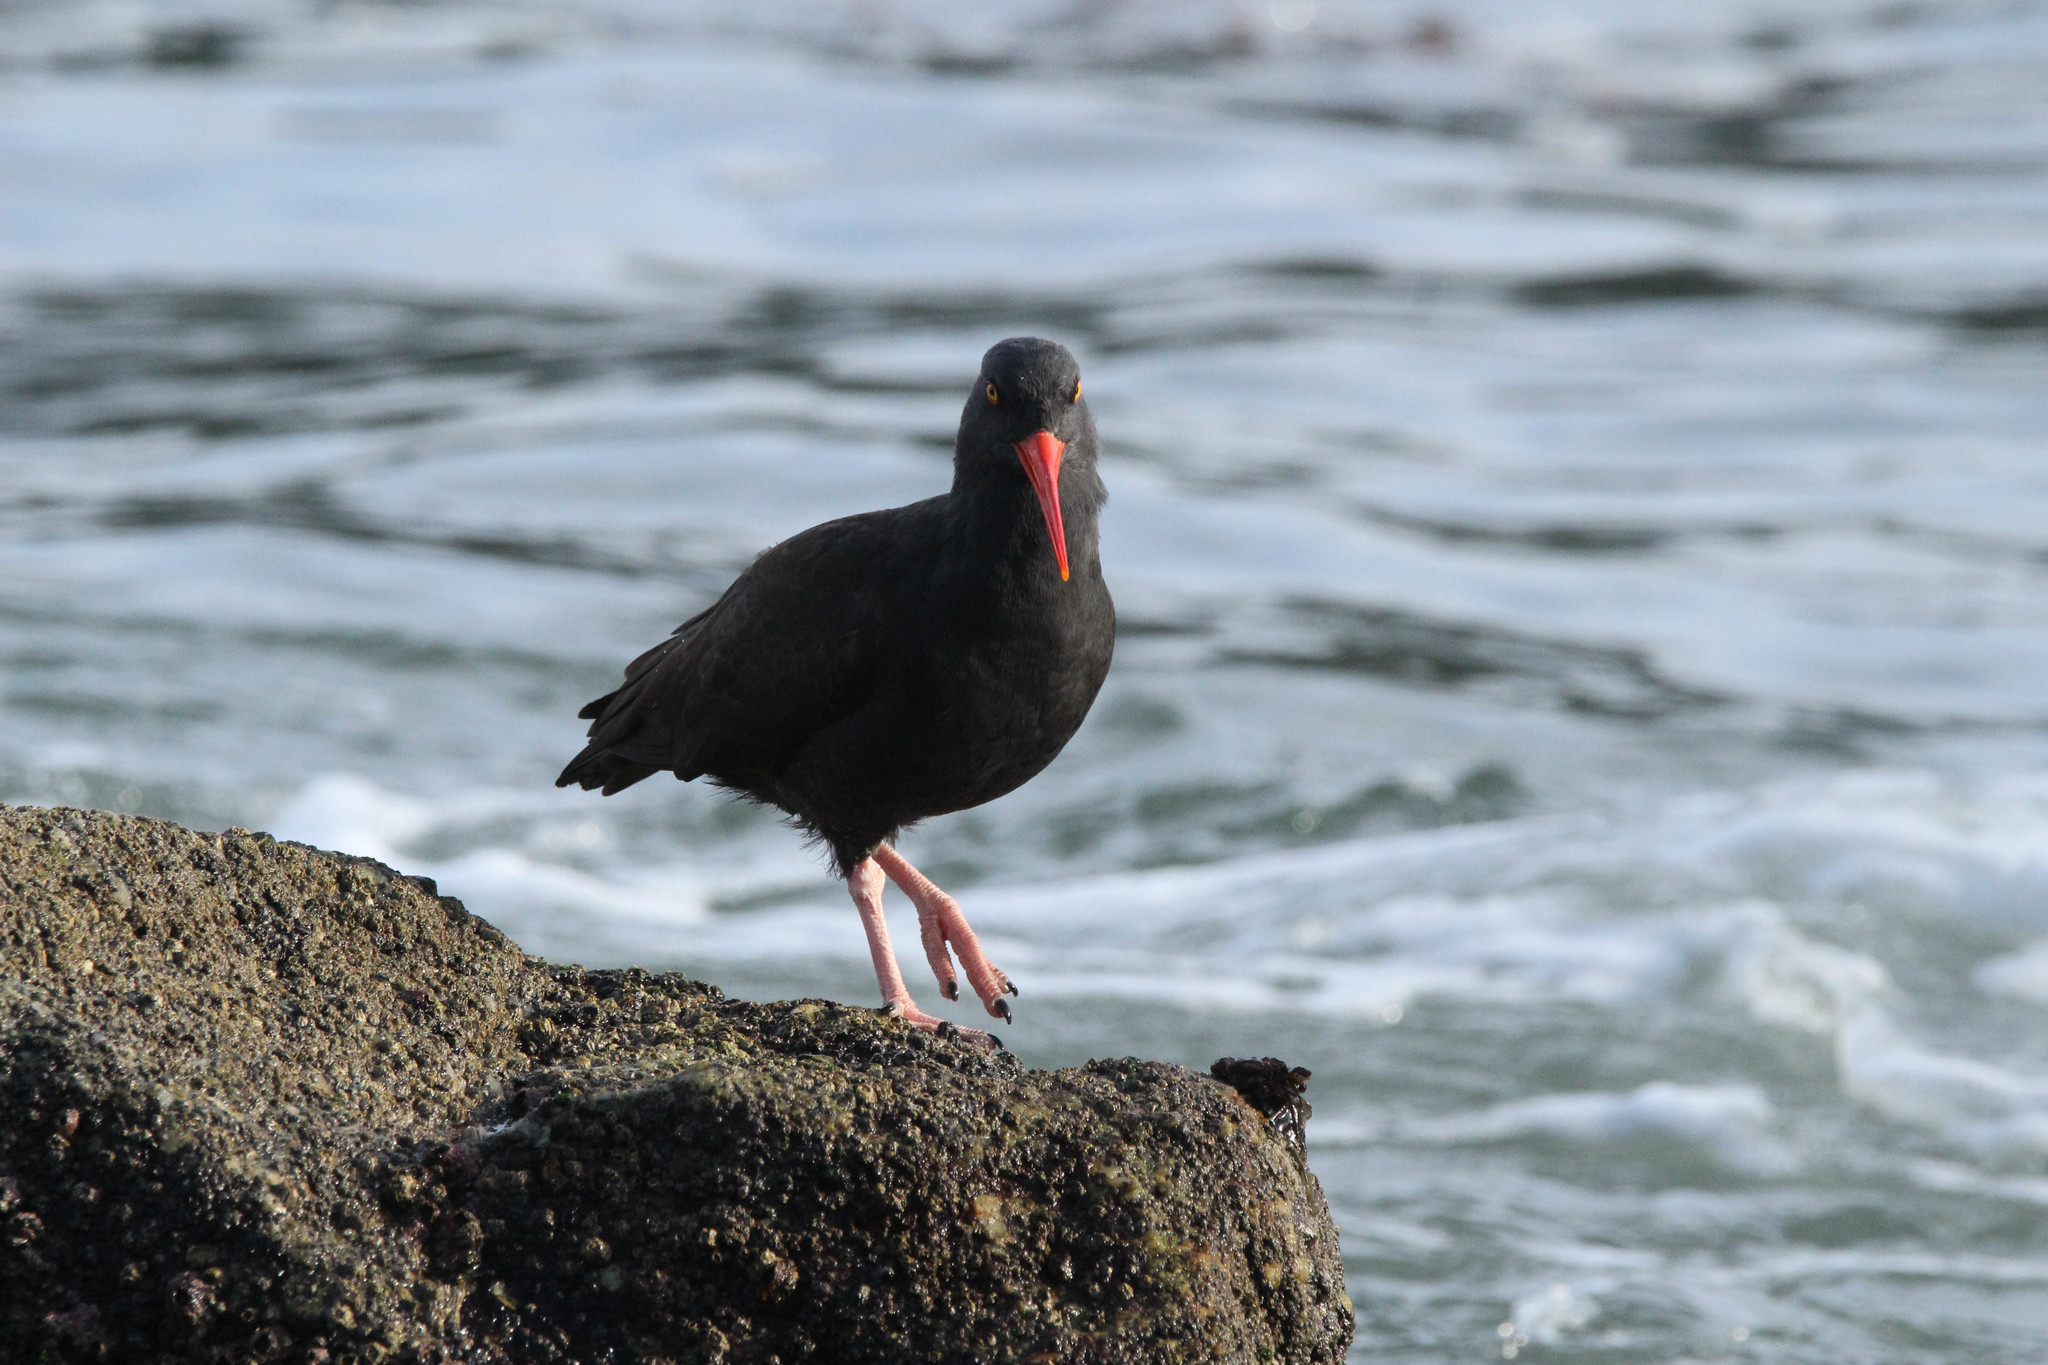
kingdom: Animalia
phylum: Chordata
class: Aves
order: Charadriiformes
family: Haematopodidae
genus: Haematopus
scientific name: Haematopus bachmani
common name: Black oystercatcher
